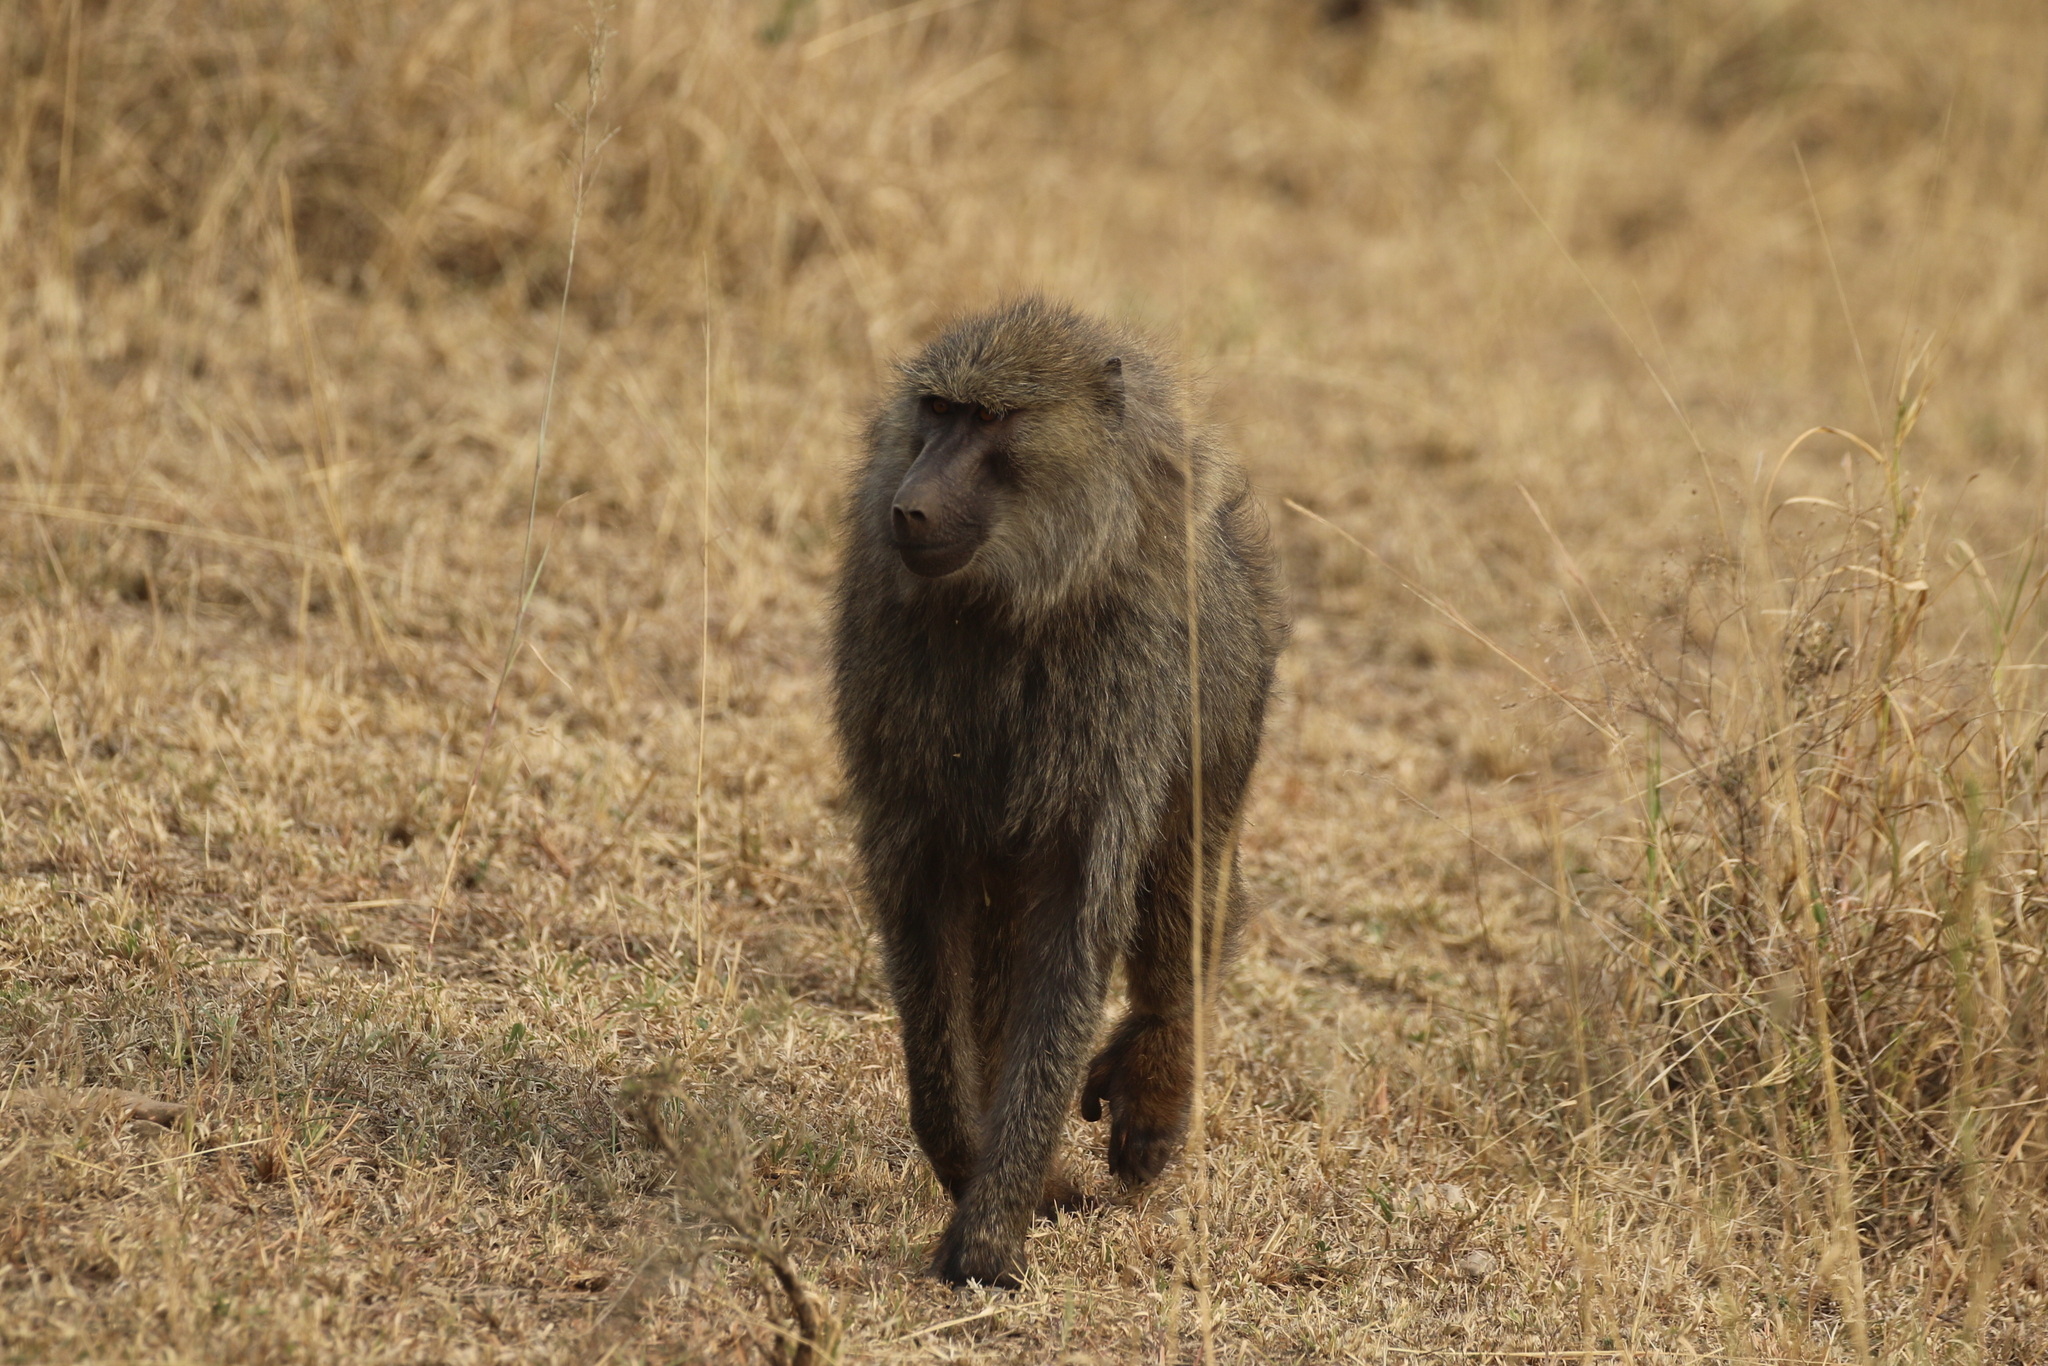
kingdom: Animalia
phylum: Chordata
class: Mammalia
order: Primates
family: Cercopithecidae
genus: Papio
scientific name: Papio anubis
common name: Olive baboon
